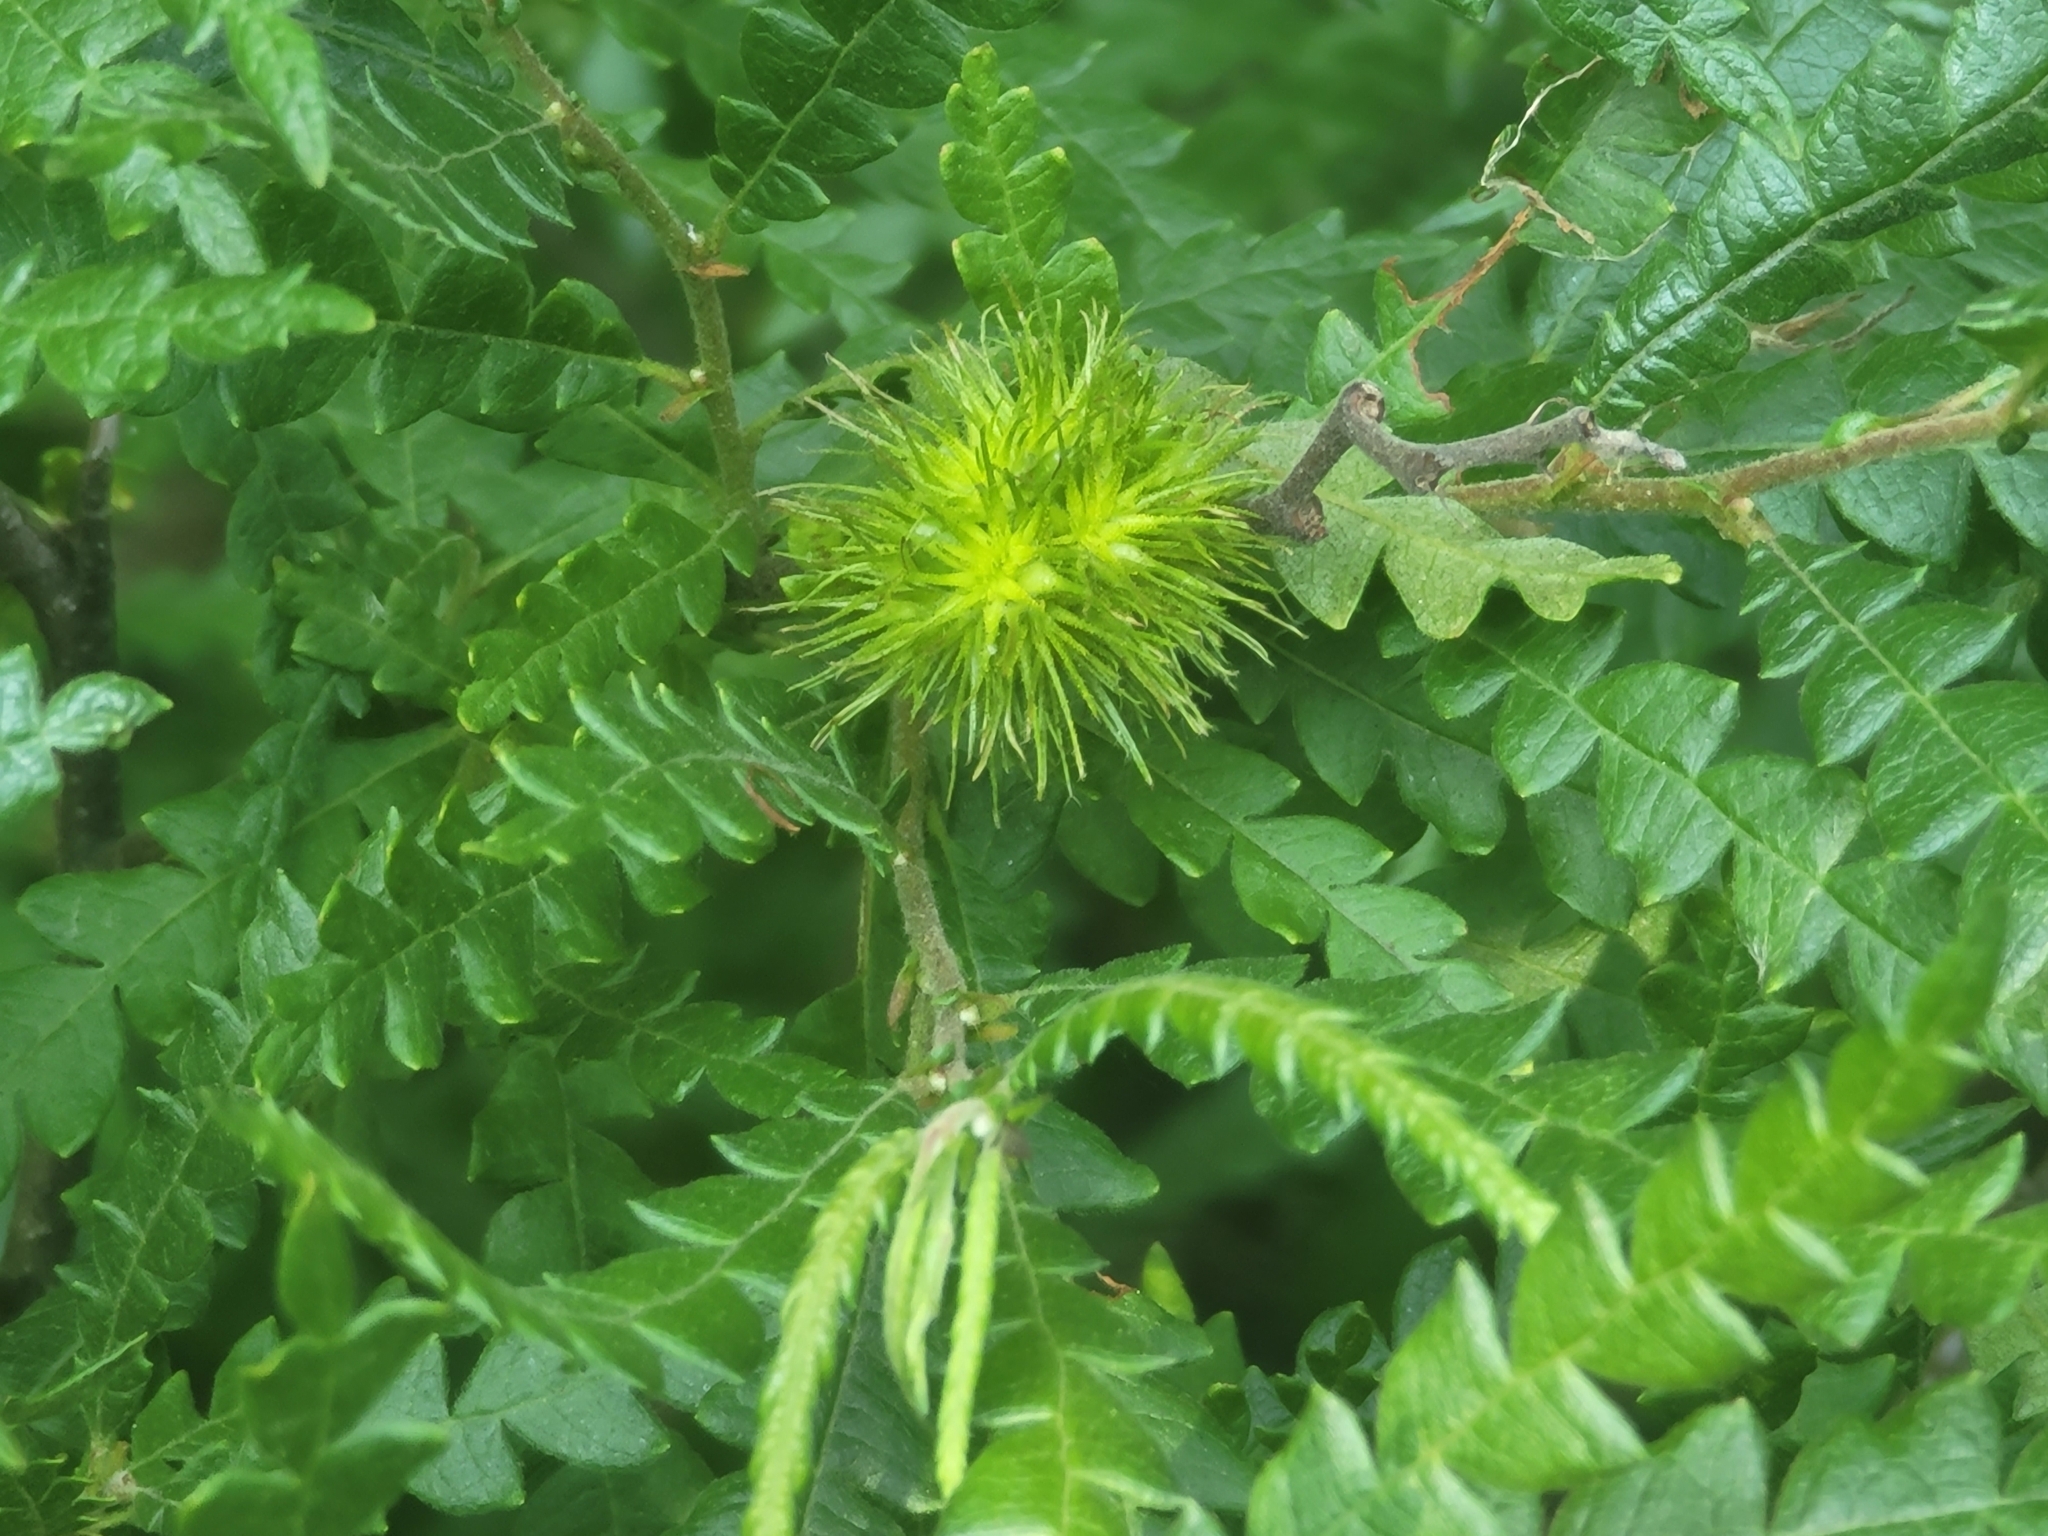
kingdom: Plantae
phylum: Tracheophyta
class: Magnoliopsida
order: Fagales
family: Myricaceae
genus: Comptonia
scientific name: Comptonia peregrina
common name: Sweet-fern
